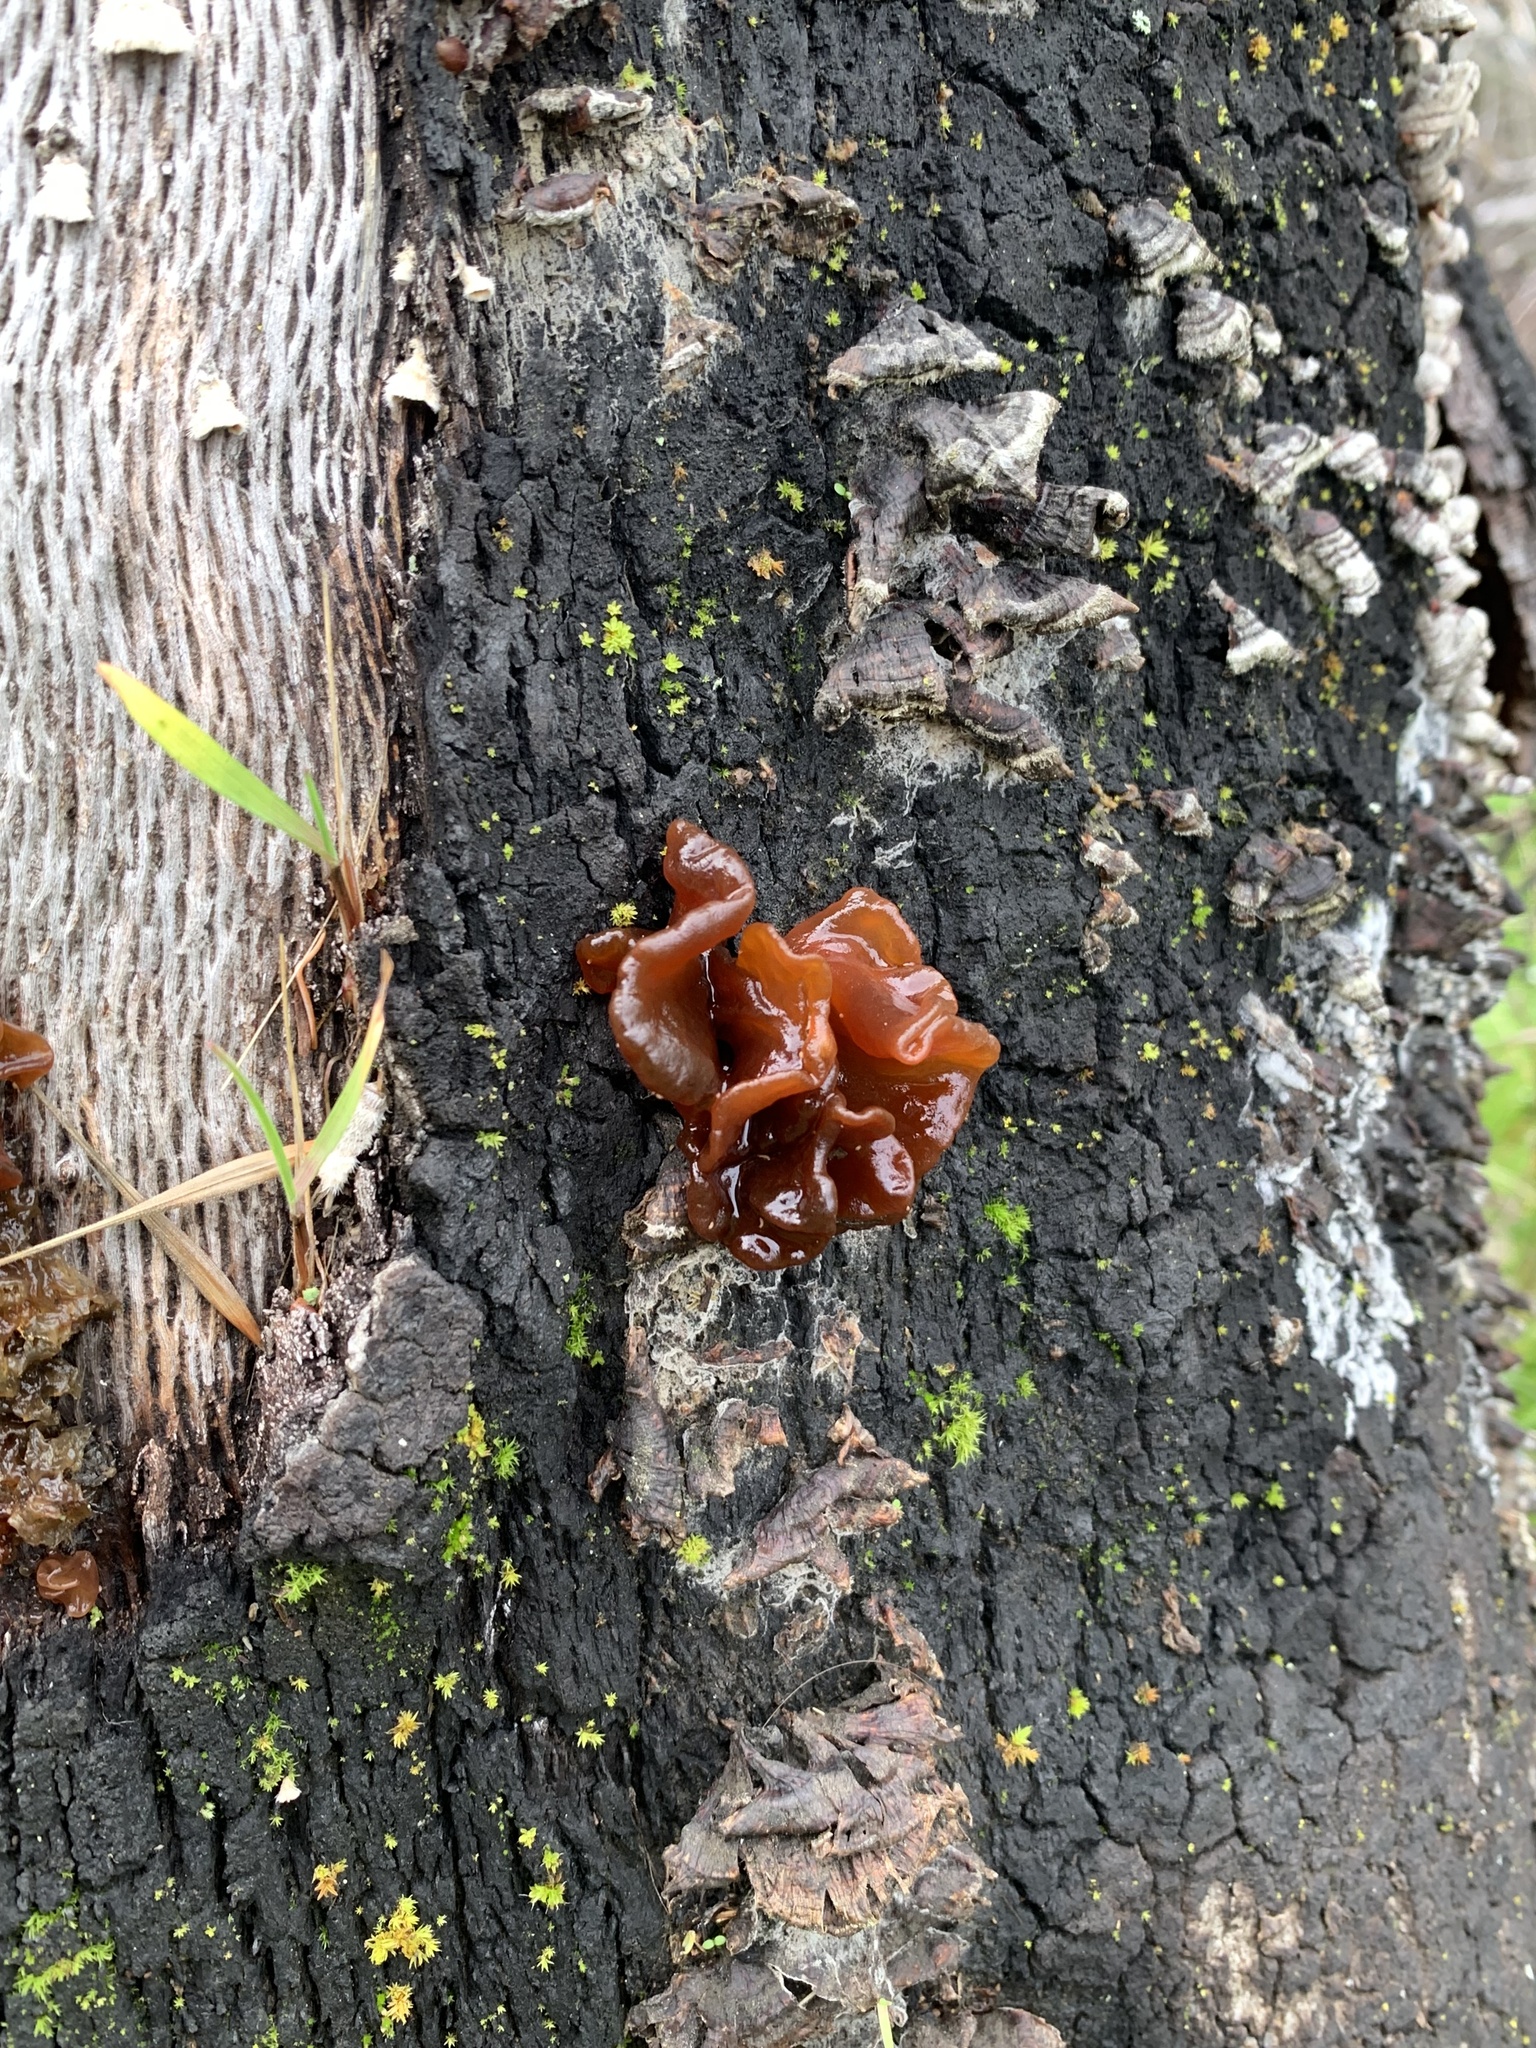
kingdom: Fungi
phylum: Basidiomycota
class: Tremellomycetes
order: Tremellales
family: Tremellaceae
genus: Phaeotremella
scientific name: Phaeotremella foliacea
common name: Leafy brain
